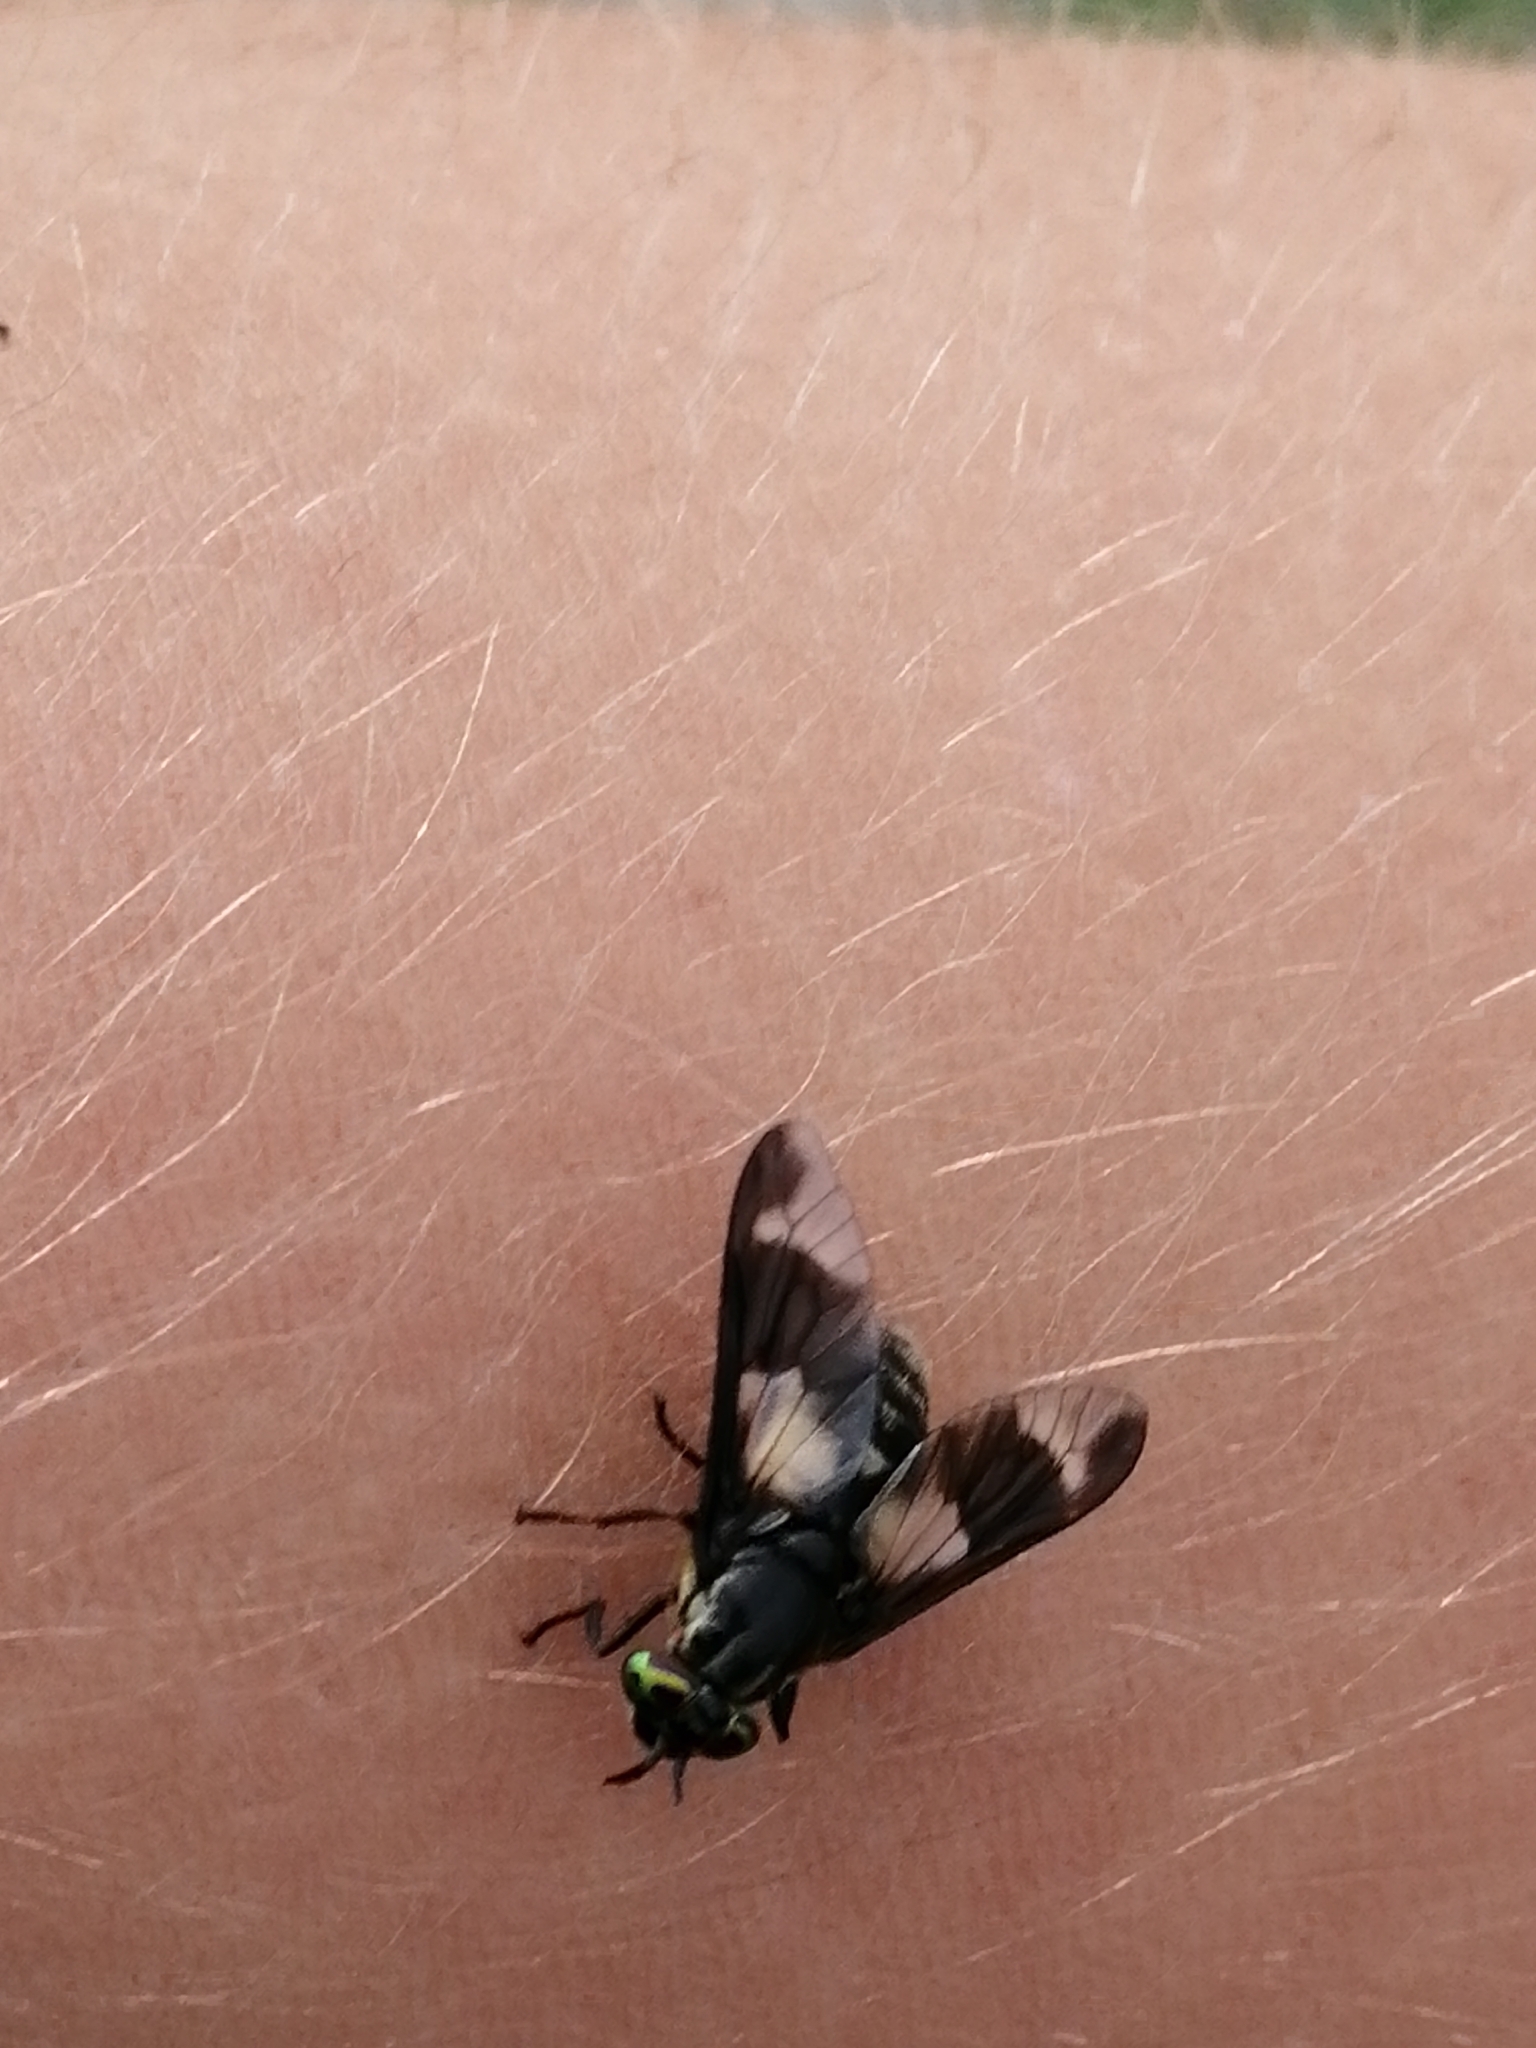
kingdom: Animalia
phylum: Arthropoda
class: Insecta
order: Diptera
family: Tabanidae
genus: Chrysops
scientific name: Chrysops caecutiens
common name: Splayed deerfly
